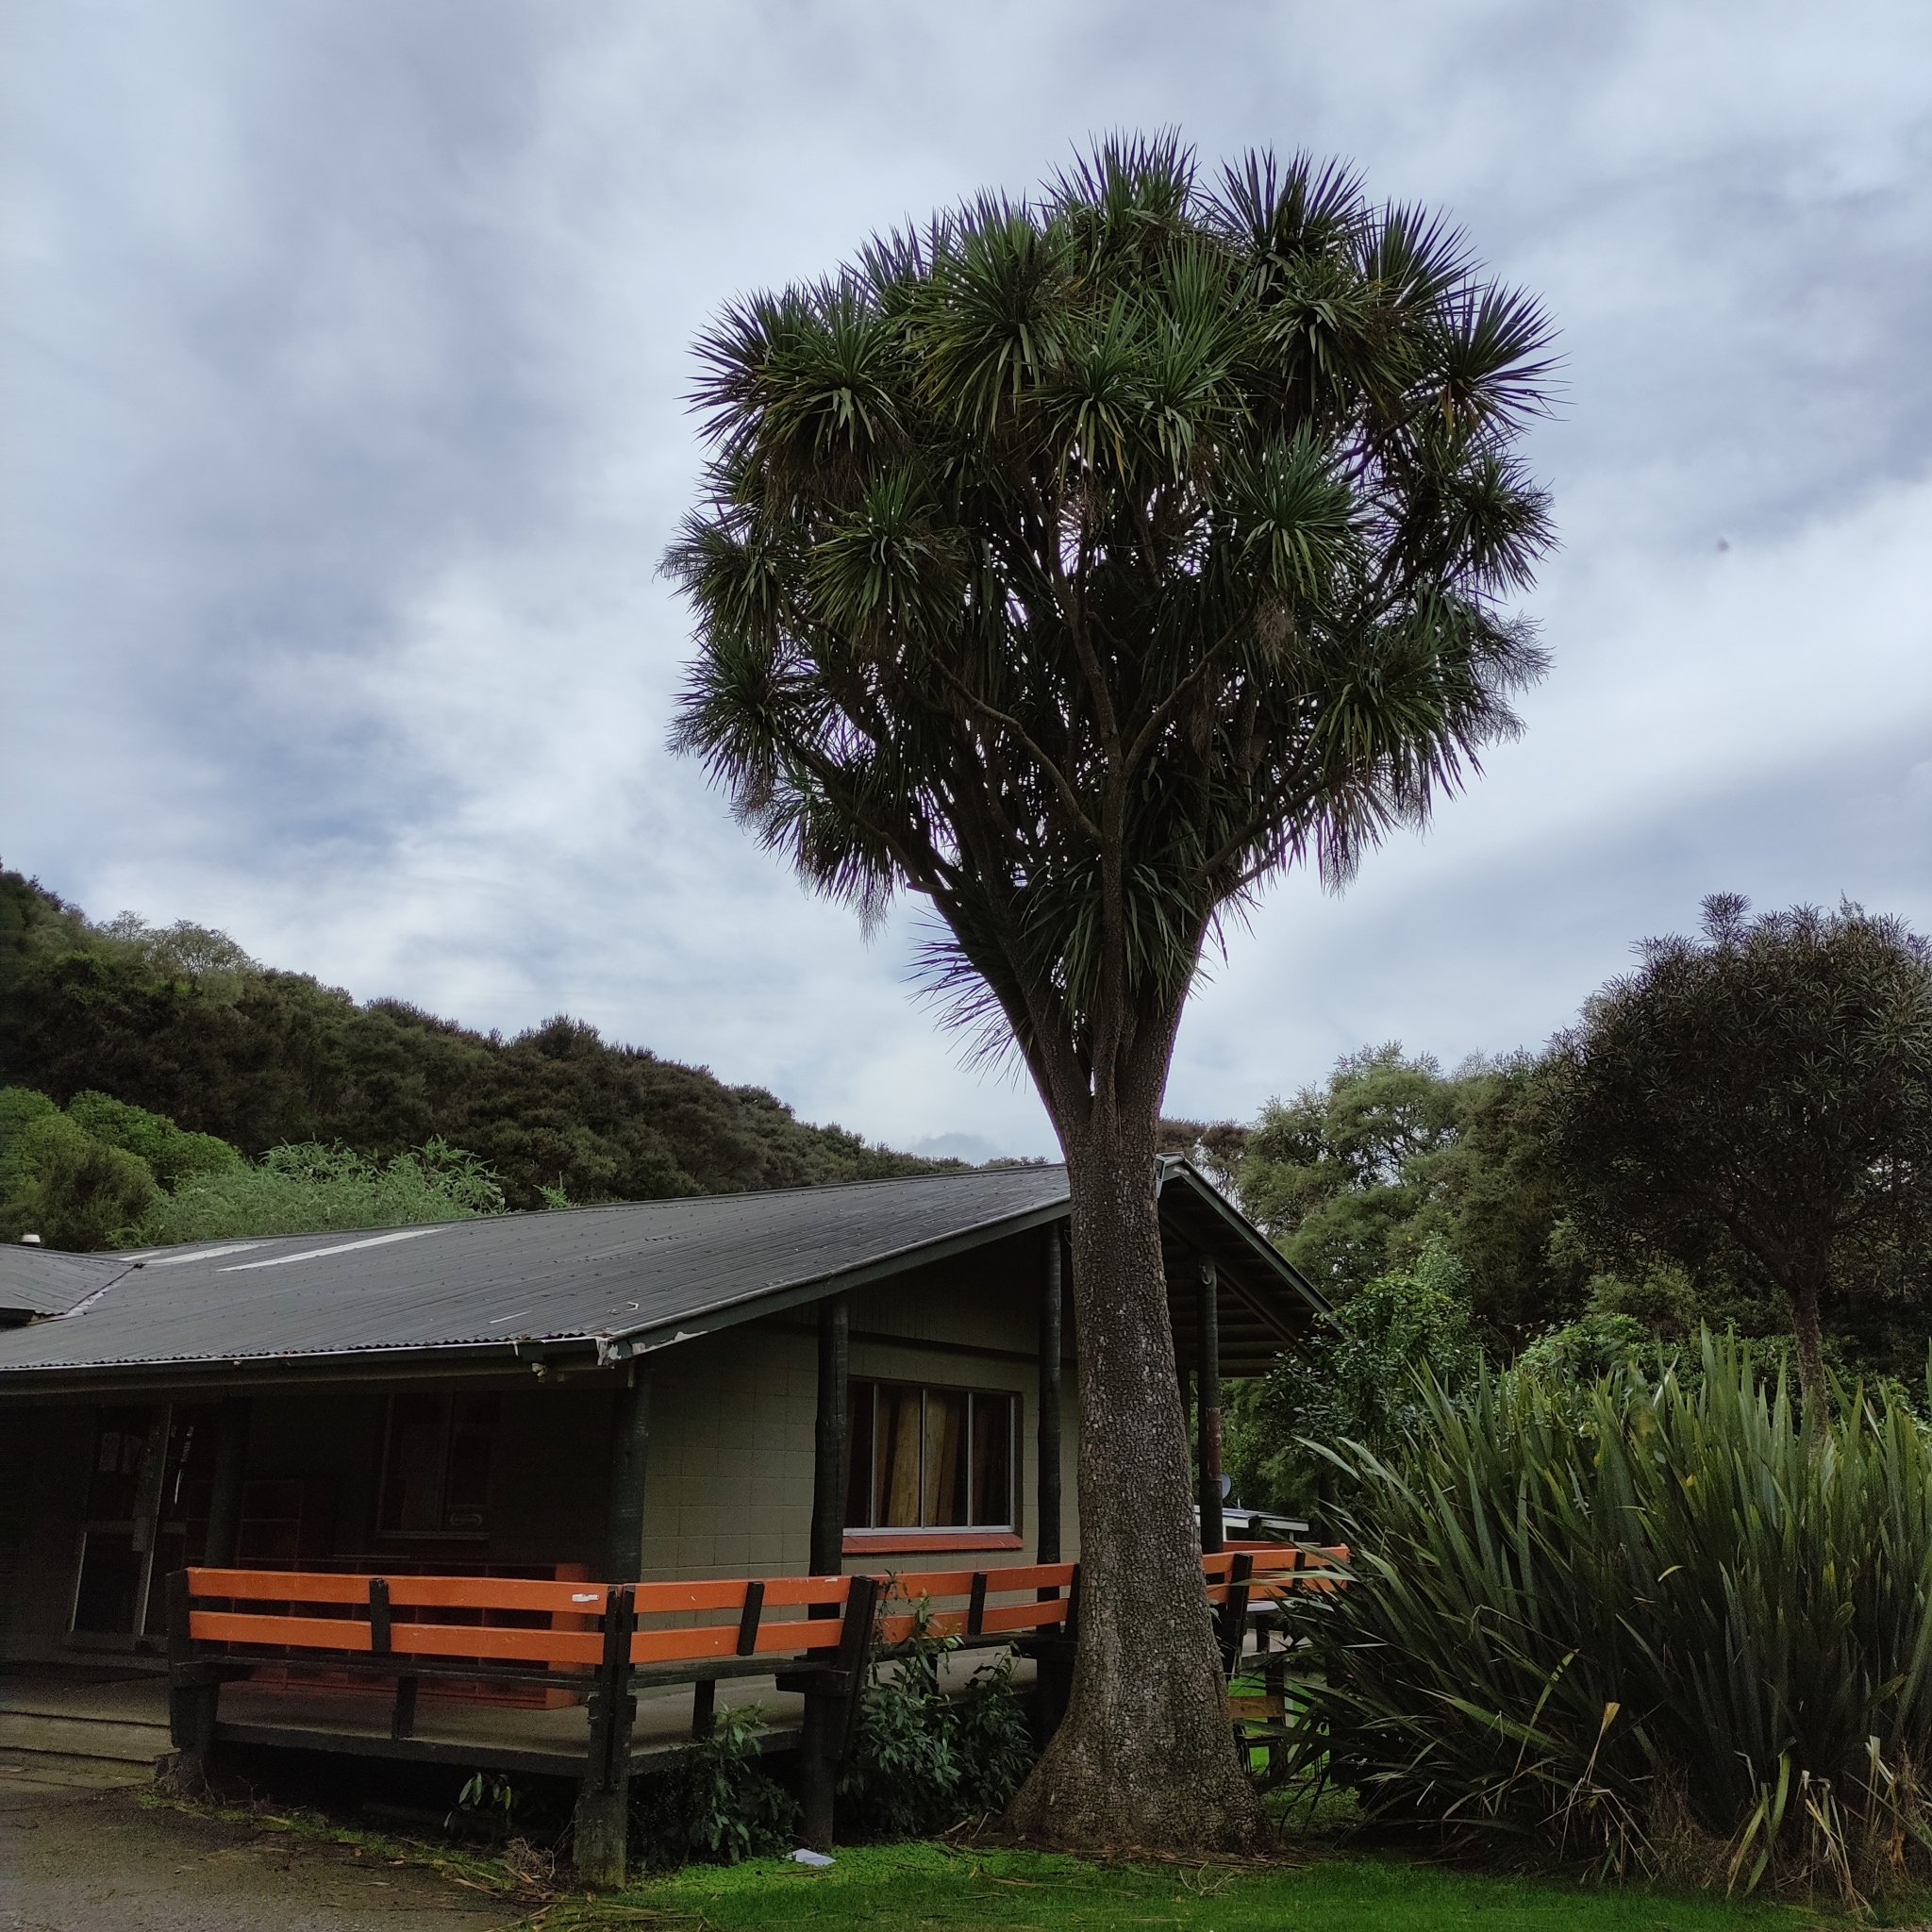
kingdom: Plantae
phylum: Tracheophyta
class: Liliopsida
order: Asparagales
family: Asparagaceae
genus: Cordyline
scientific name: Cordyline australis
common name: Cabbage-palm
